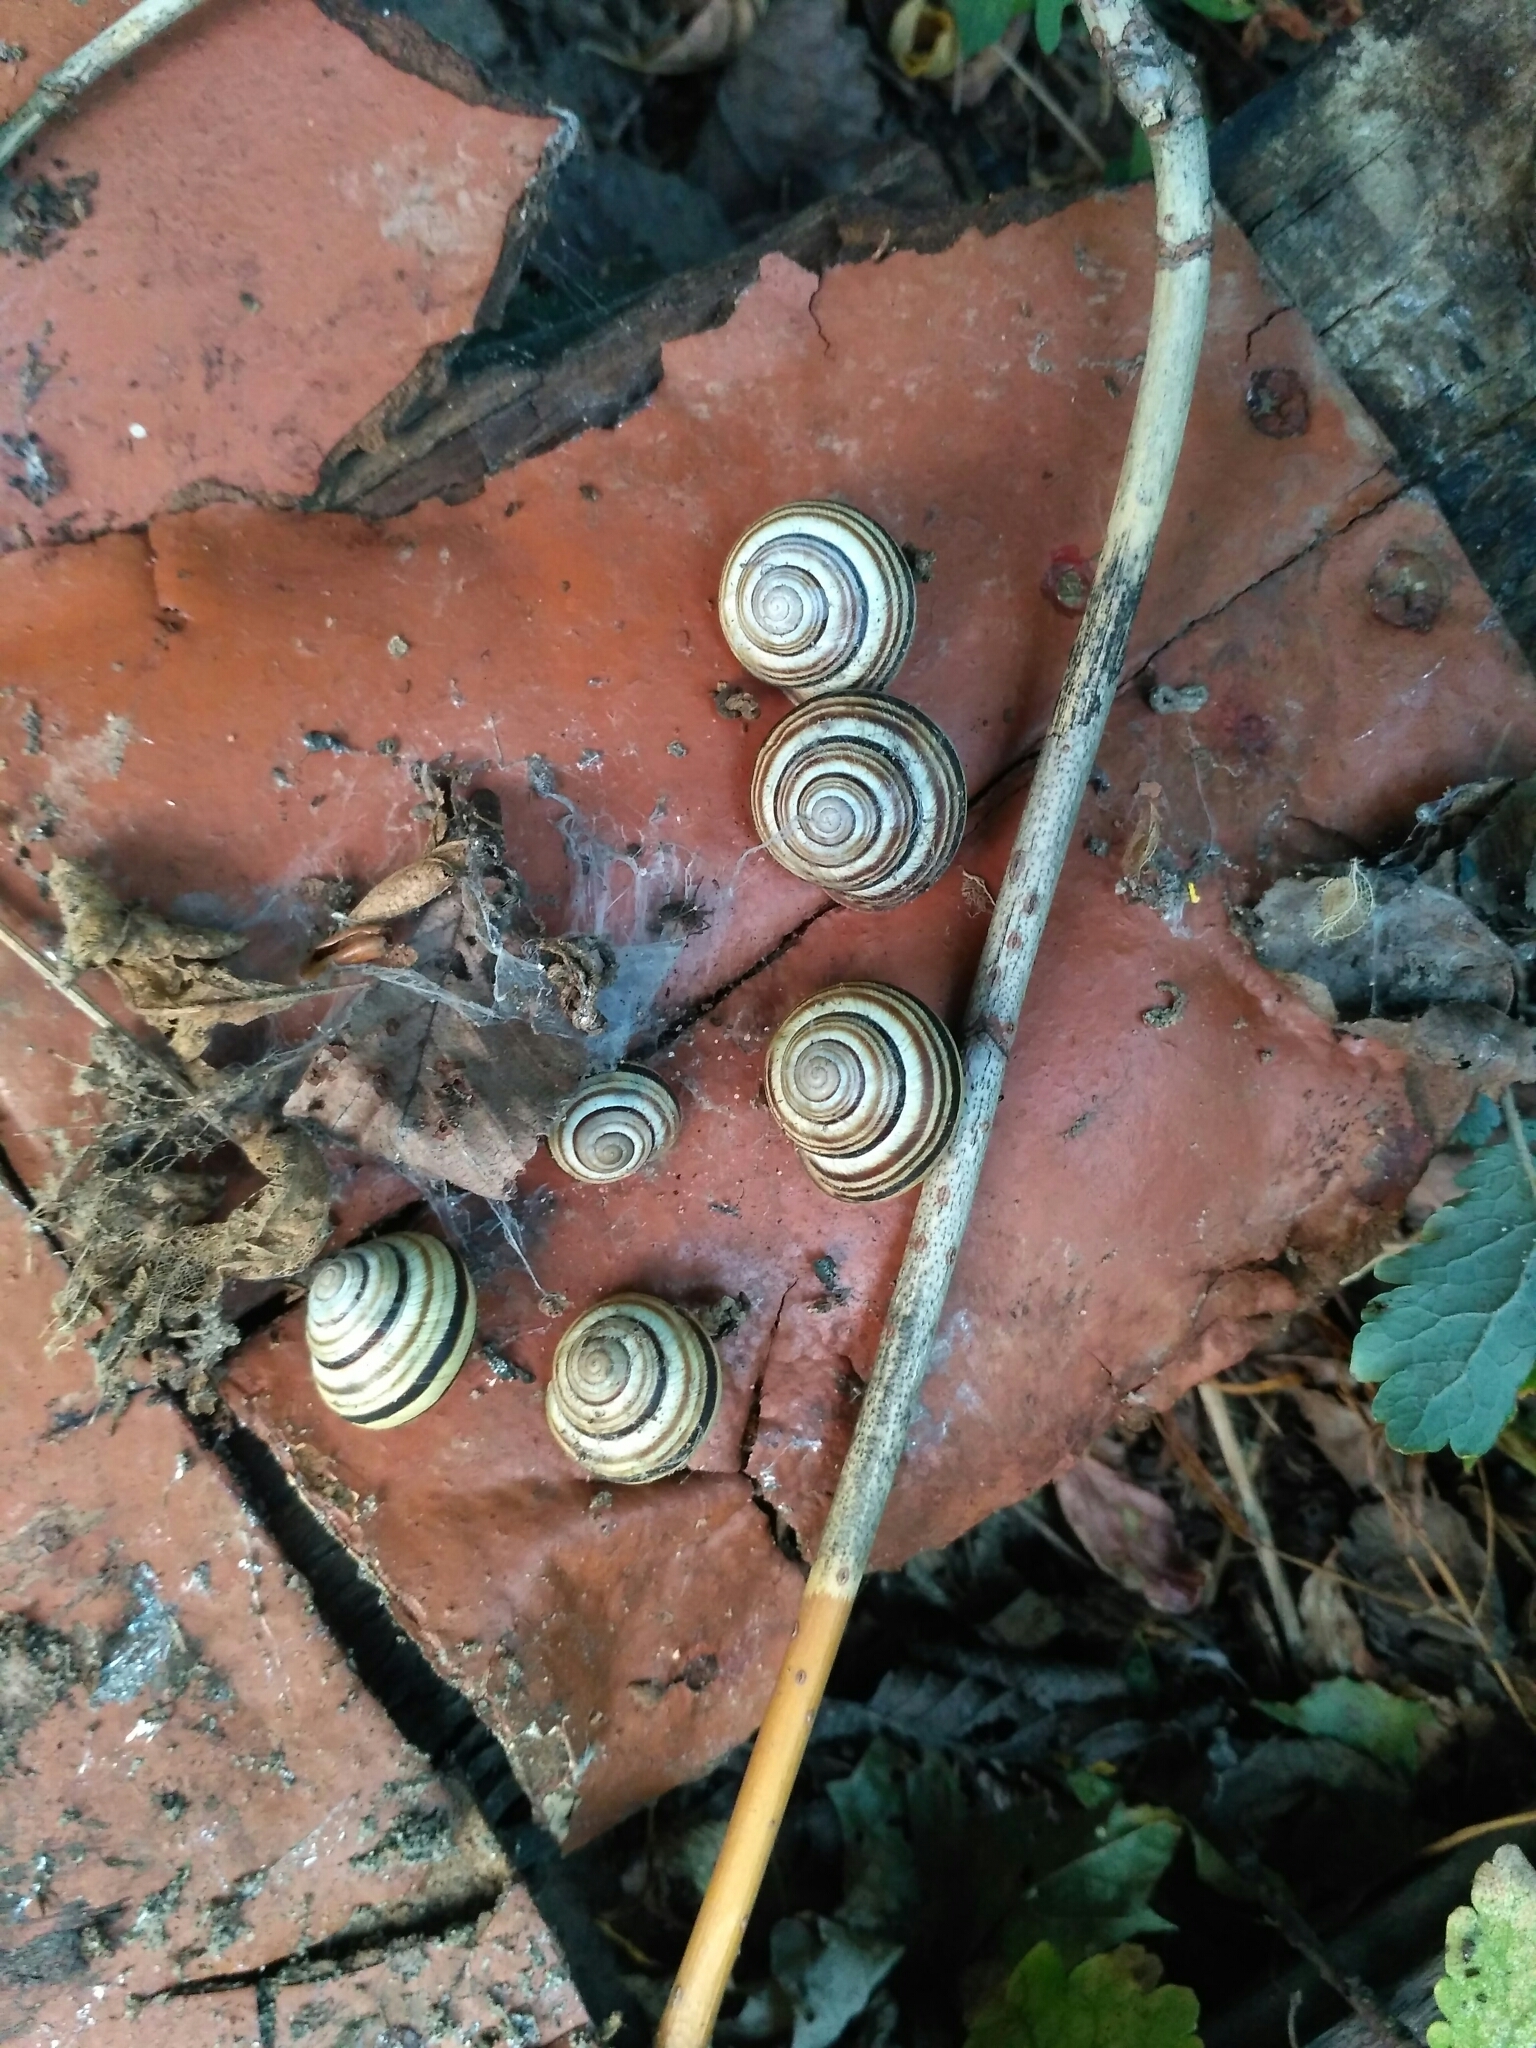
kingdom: Animalia
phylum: Mollusca
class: Gastropoda
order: Stylommatophora
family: Helicidae
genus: Caucasotachea
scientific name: Caucasotachea vindobonensis
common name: European helicid land snail
